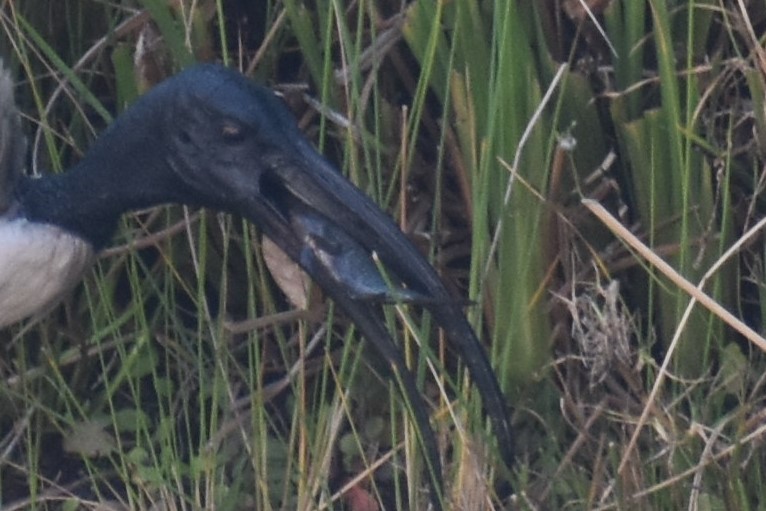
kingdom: Animalia
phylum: Chordata
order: Perciformes
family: Cichlidae
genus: Tilapia
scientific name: Tilapia sparrmanii
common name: Banded tilapia
